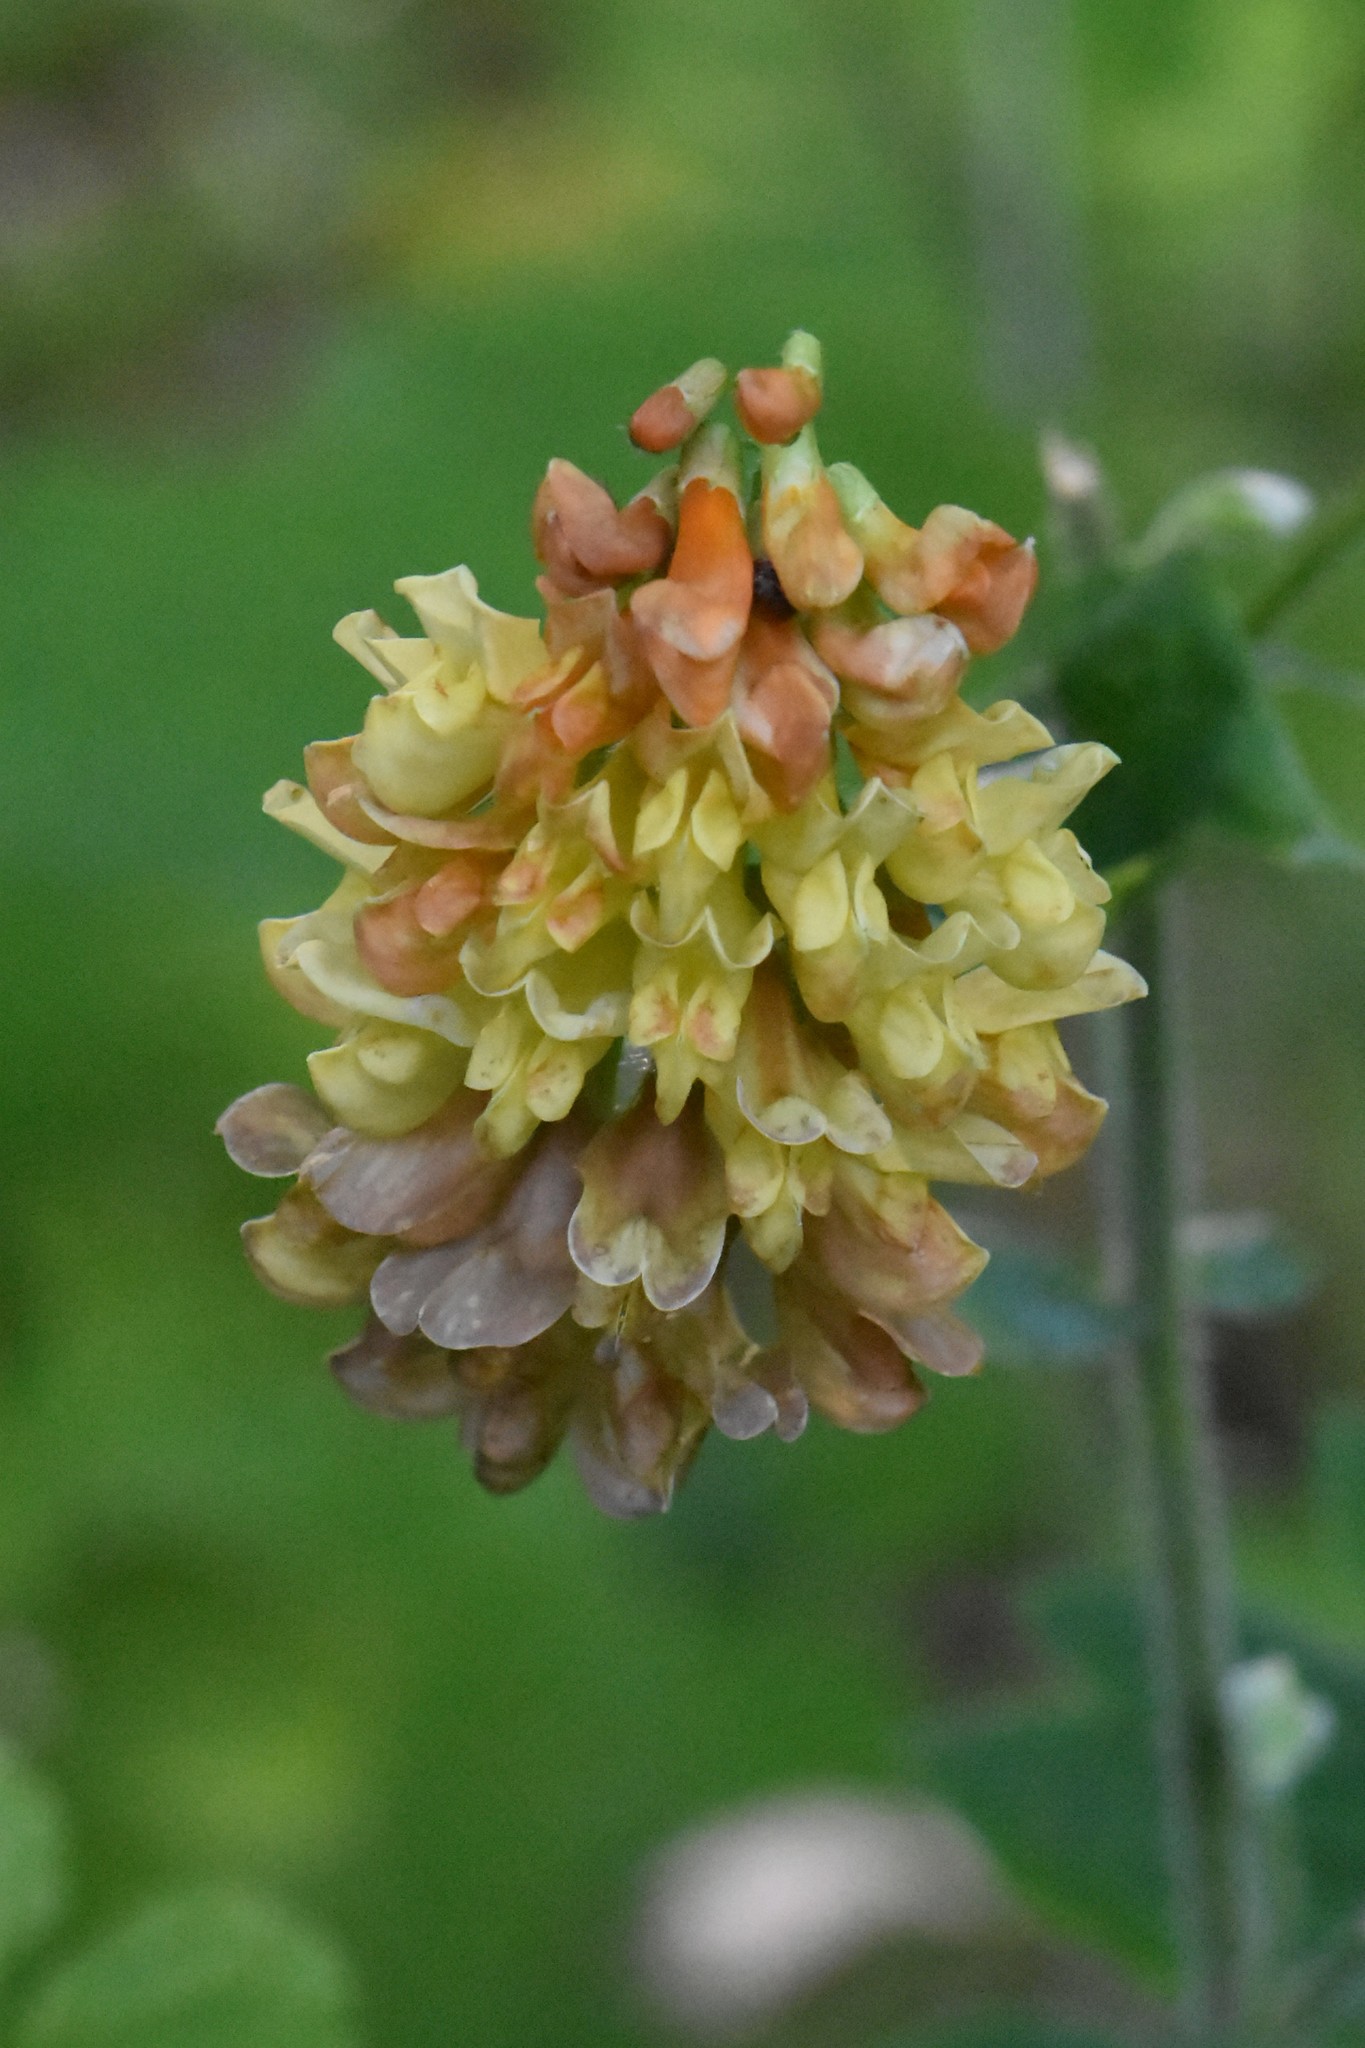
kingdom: Plantae
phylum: Tracheophyta
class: Magnoliopsida
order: Fabales
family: Fabaceae
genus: Vicia
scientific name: Vicia crocea
